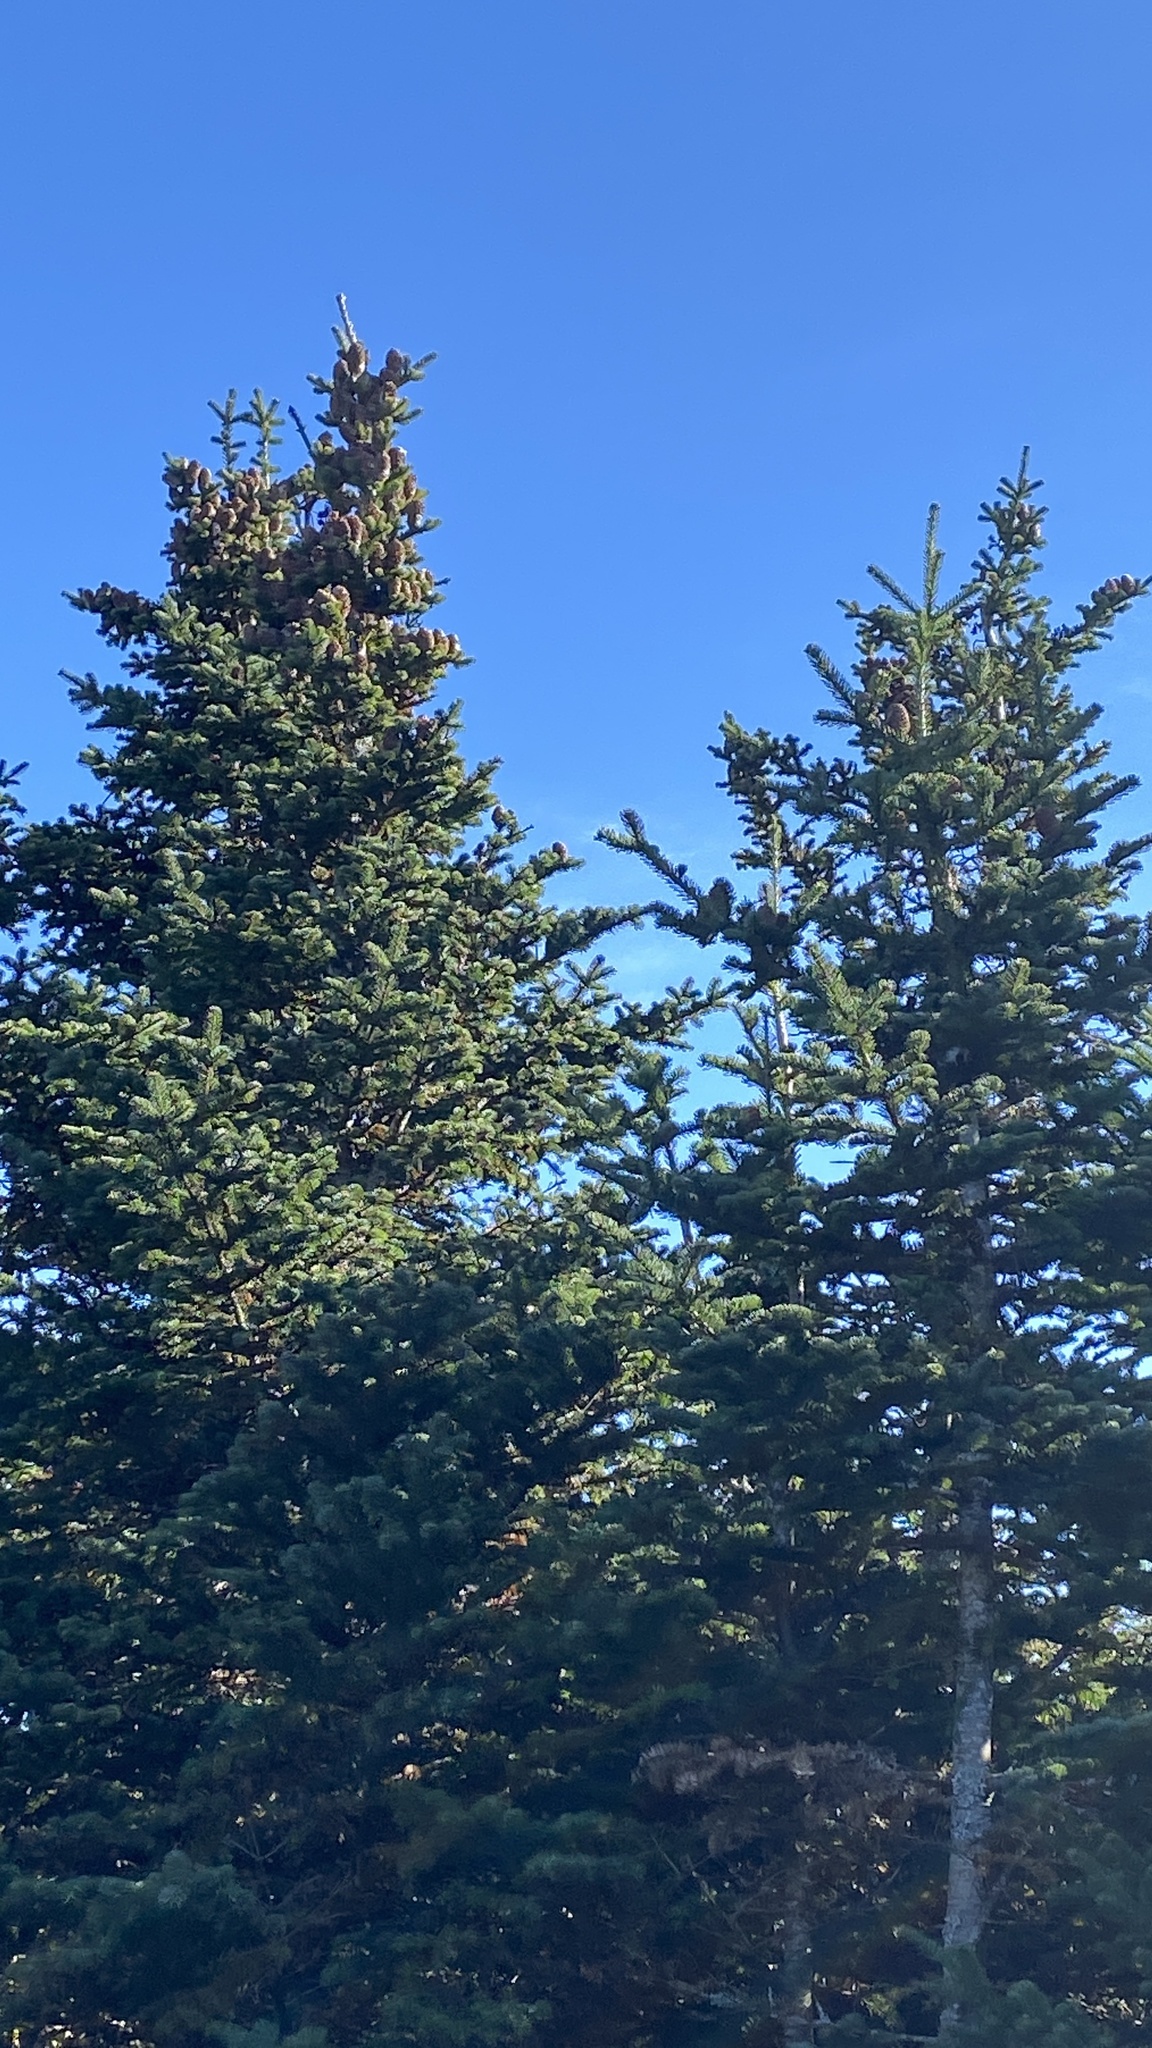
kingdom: Plantae
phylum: Tracheophyta
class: Pinopsida
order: Pinales
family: Pinaceae
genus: Abies
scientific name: Abies balsamea
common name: Balsam fir
